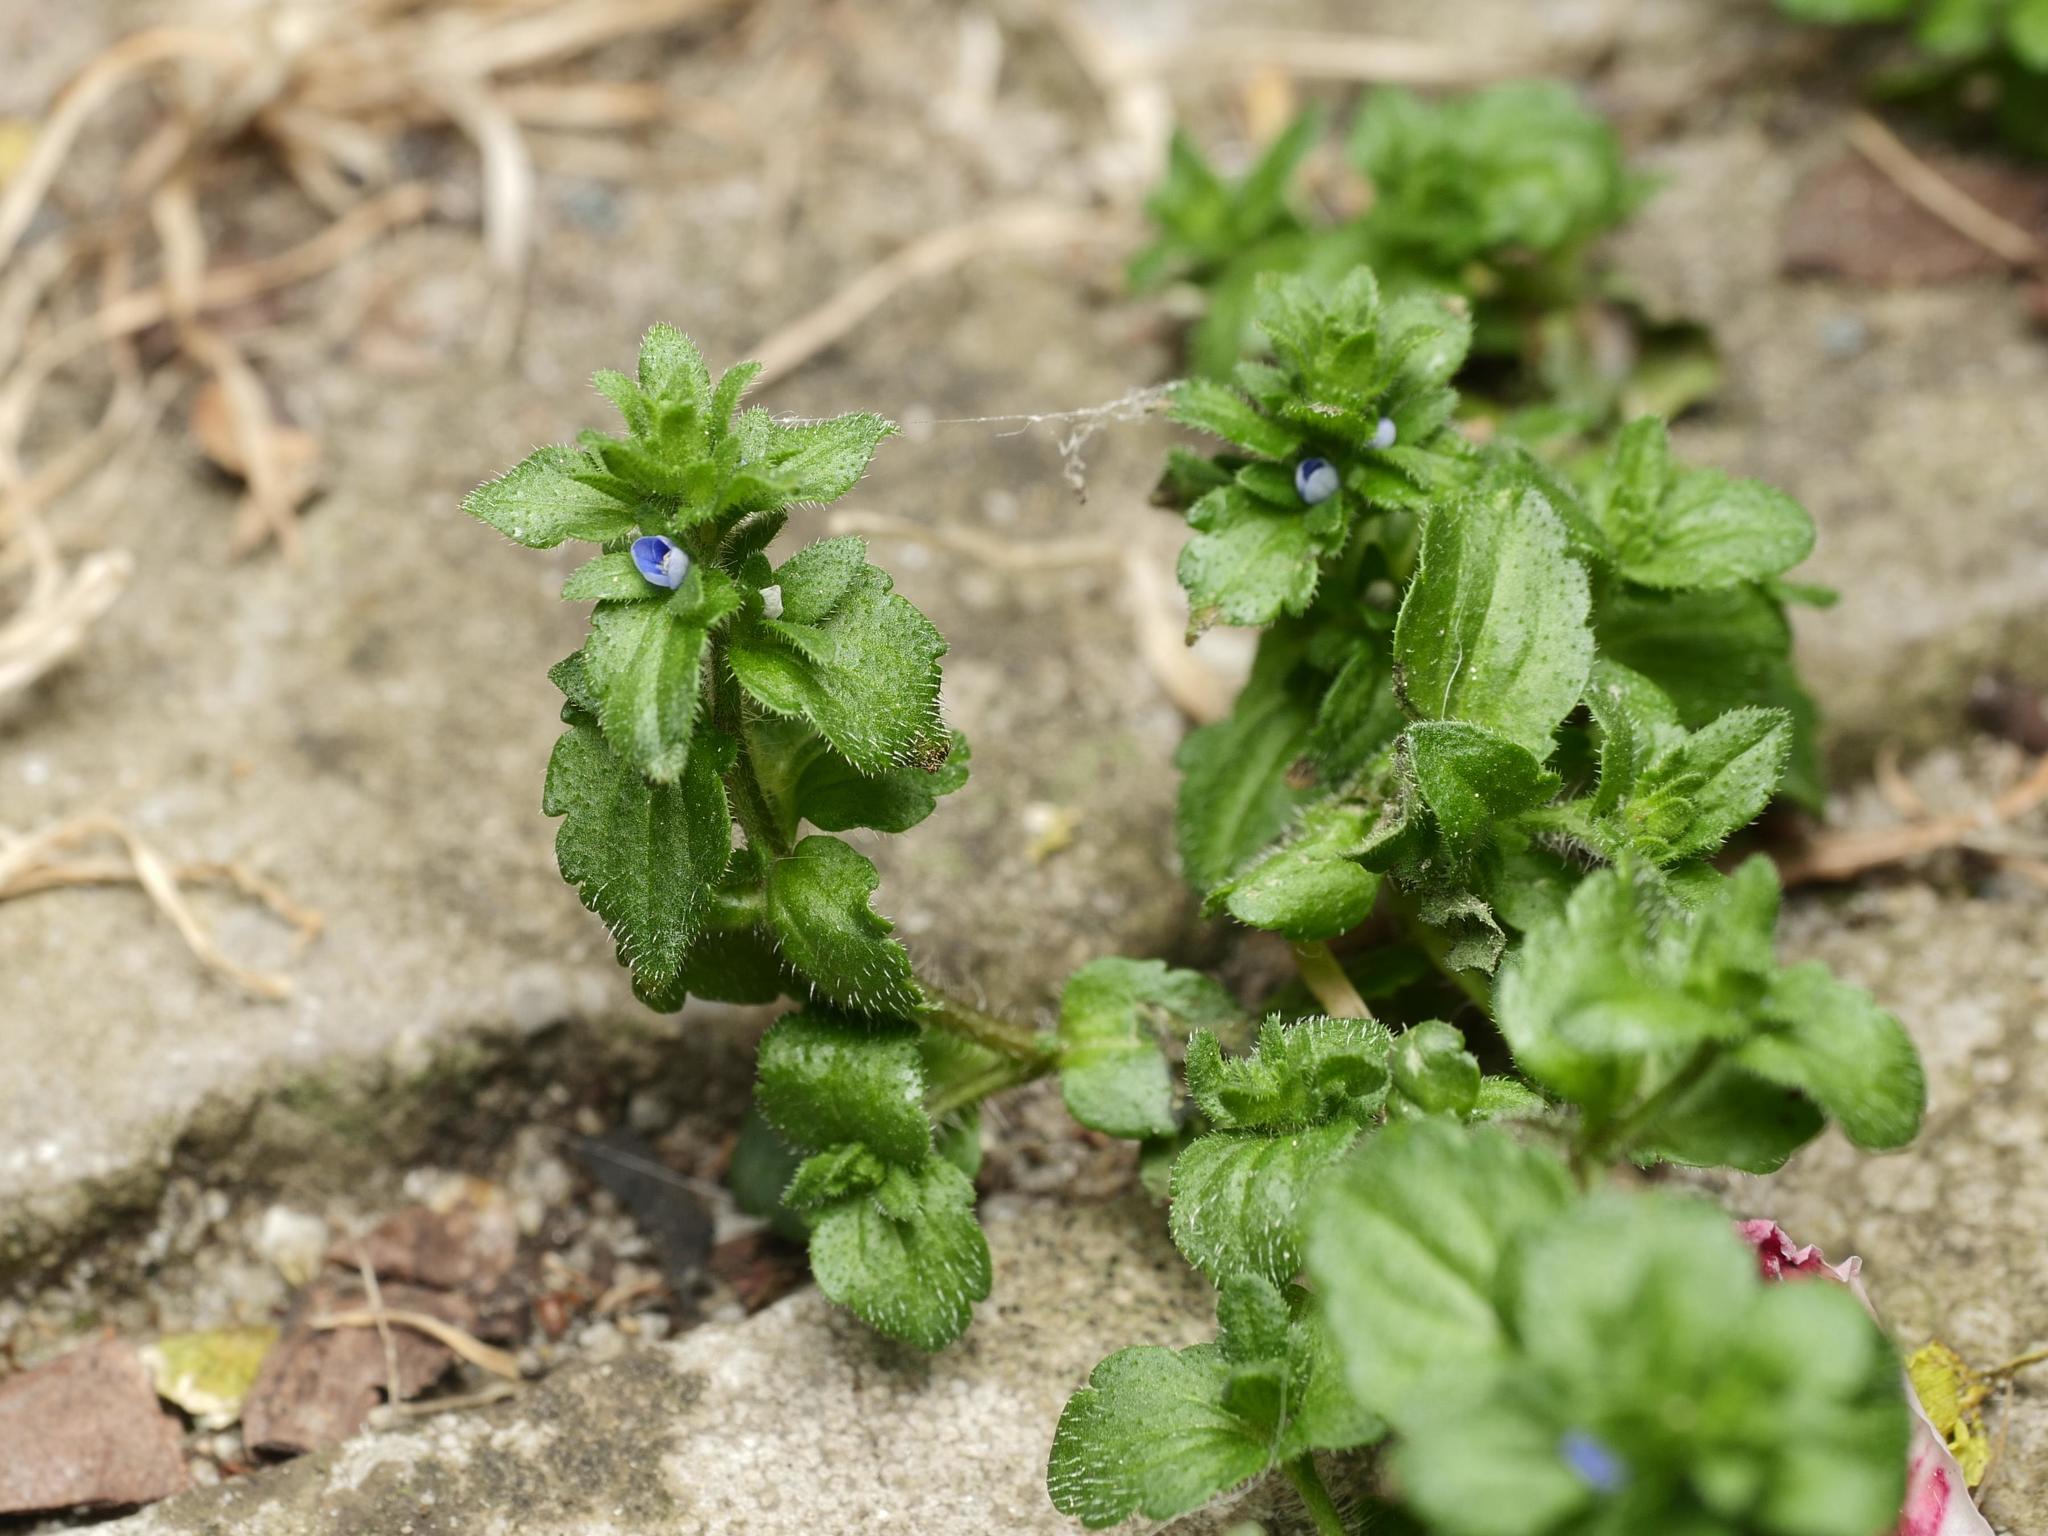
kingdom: Plantae
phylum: Tracheophyta
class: Magnoliopsida
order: Lamiales
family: Plantaginaceae
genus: Veronica
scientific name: Veronica arvensis
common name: Corn speedwell
